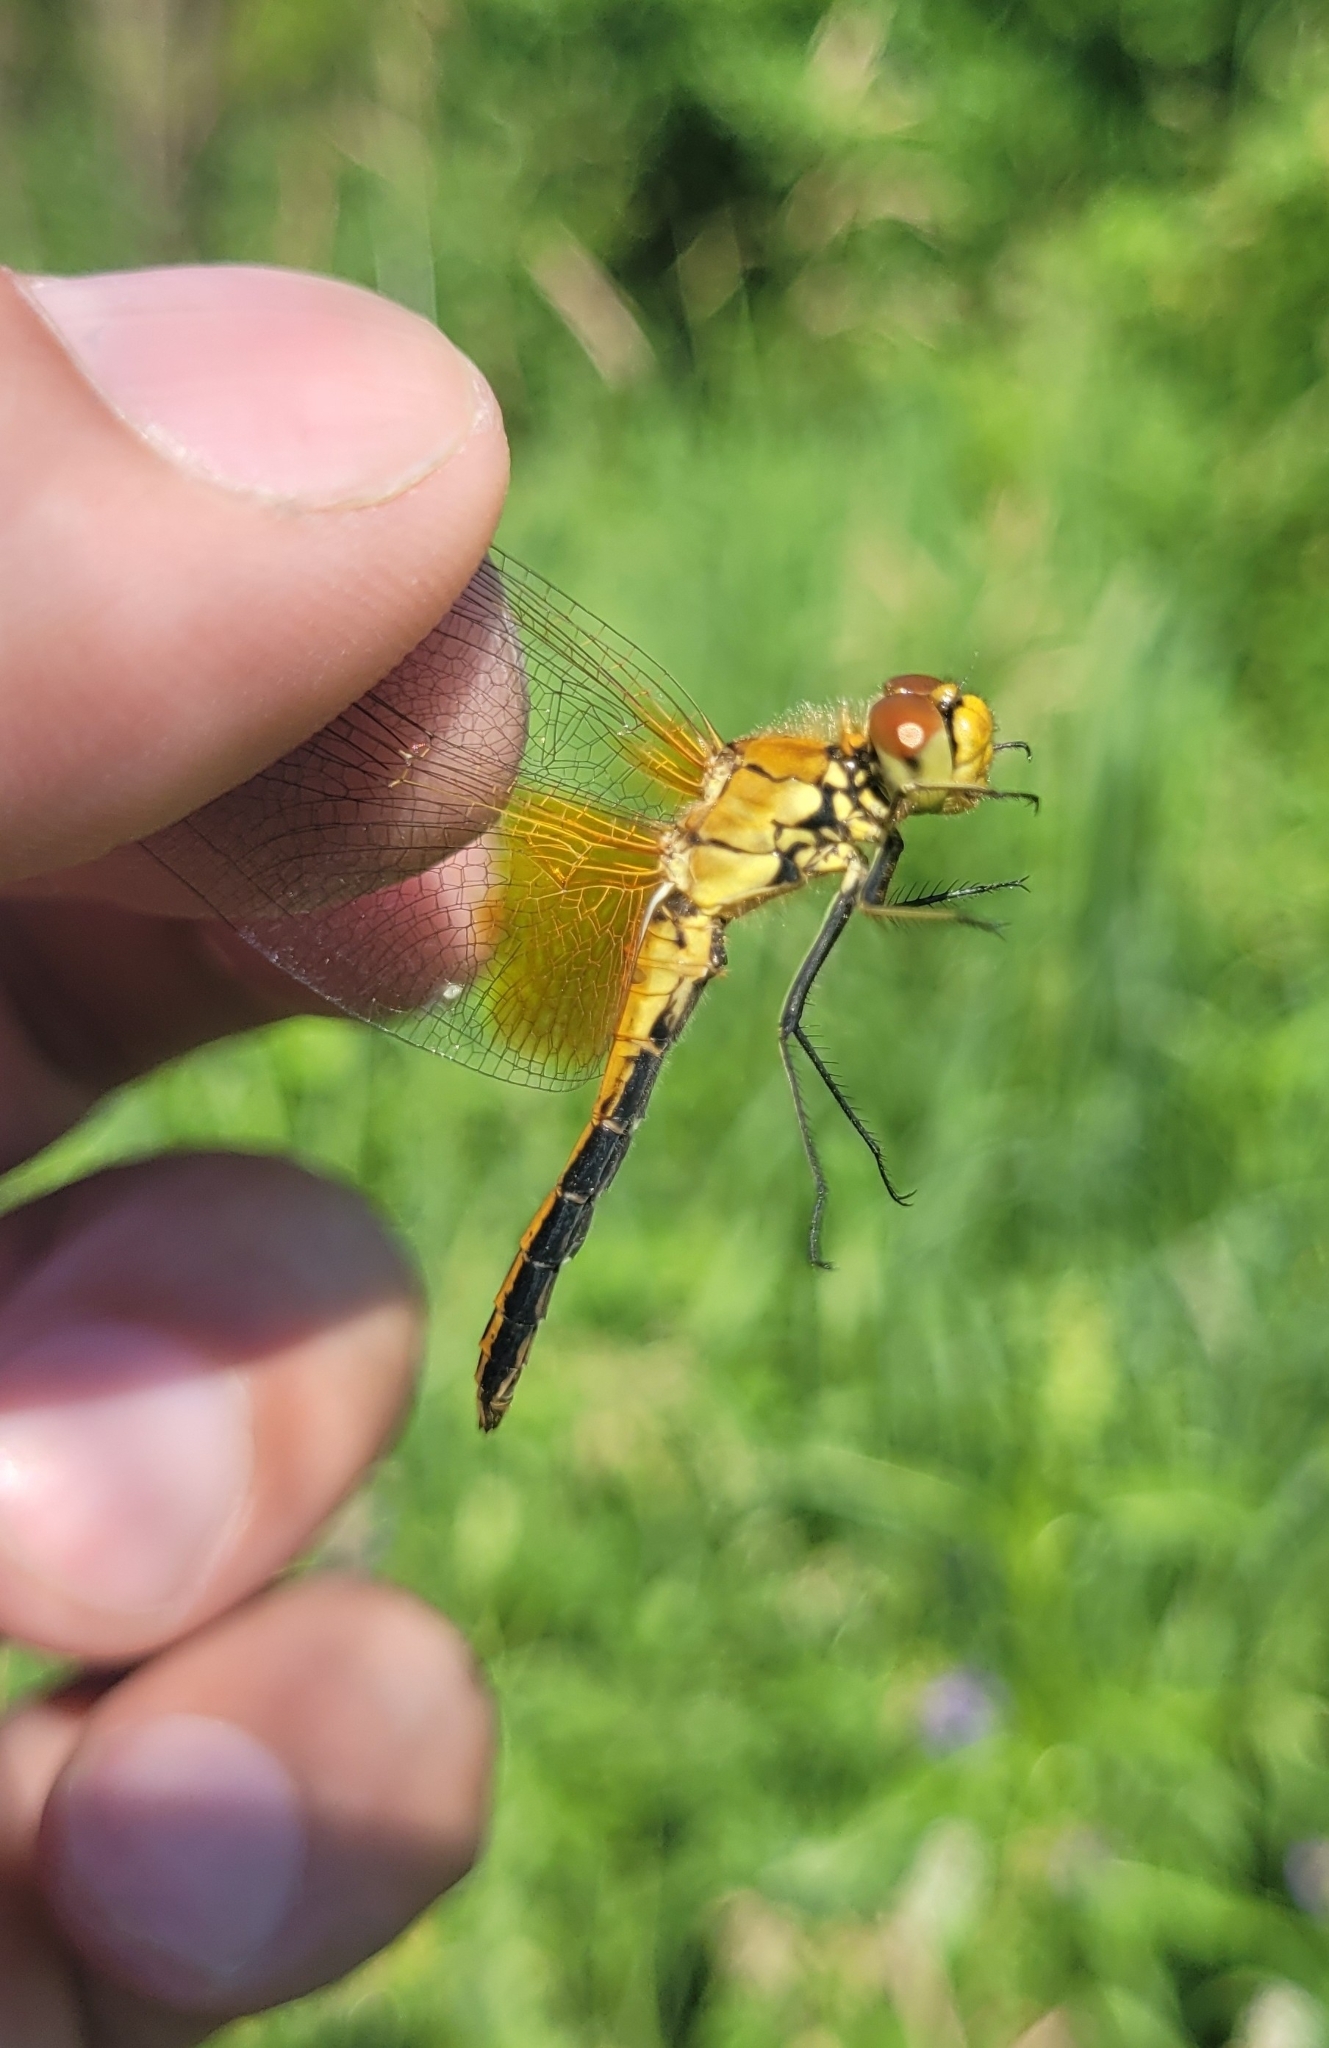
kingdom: Animalia
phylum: Arthropoda
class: Insecta
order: Odonata
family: Libellulidae
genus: Sympetrum
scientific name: Sympetrum flaveolum
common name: Yellow-winged darter
